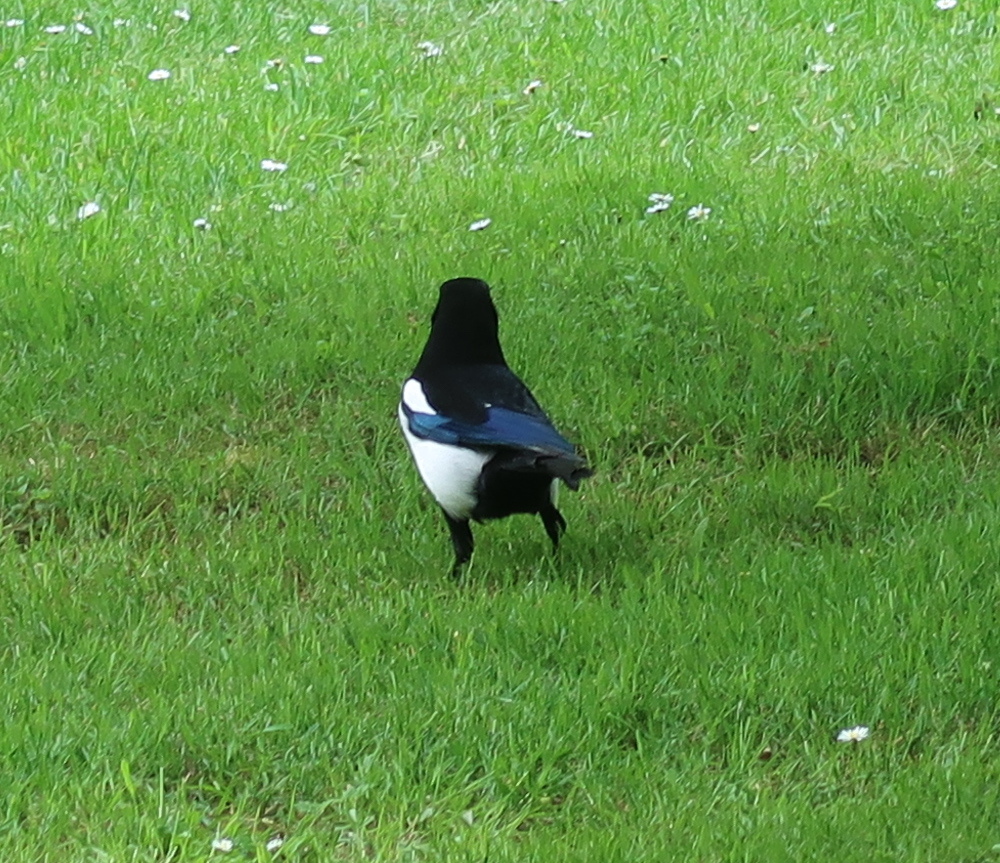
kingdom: Animalia
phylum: Chordata
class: Aves
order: Passeriformes
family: Corvidae
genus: Pica
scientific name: Pica pica
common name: Eurasian magpie
